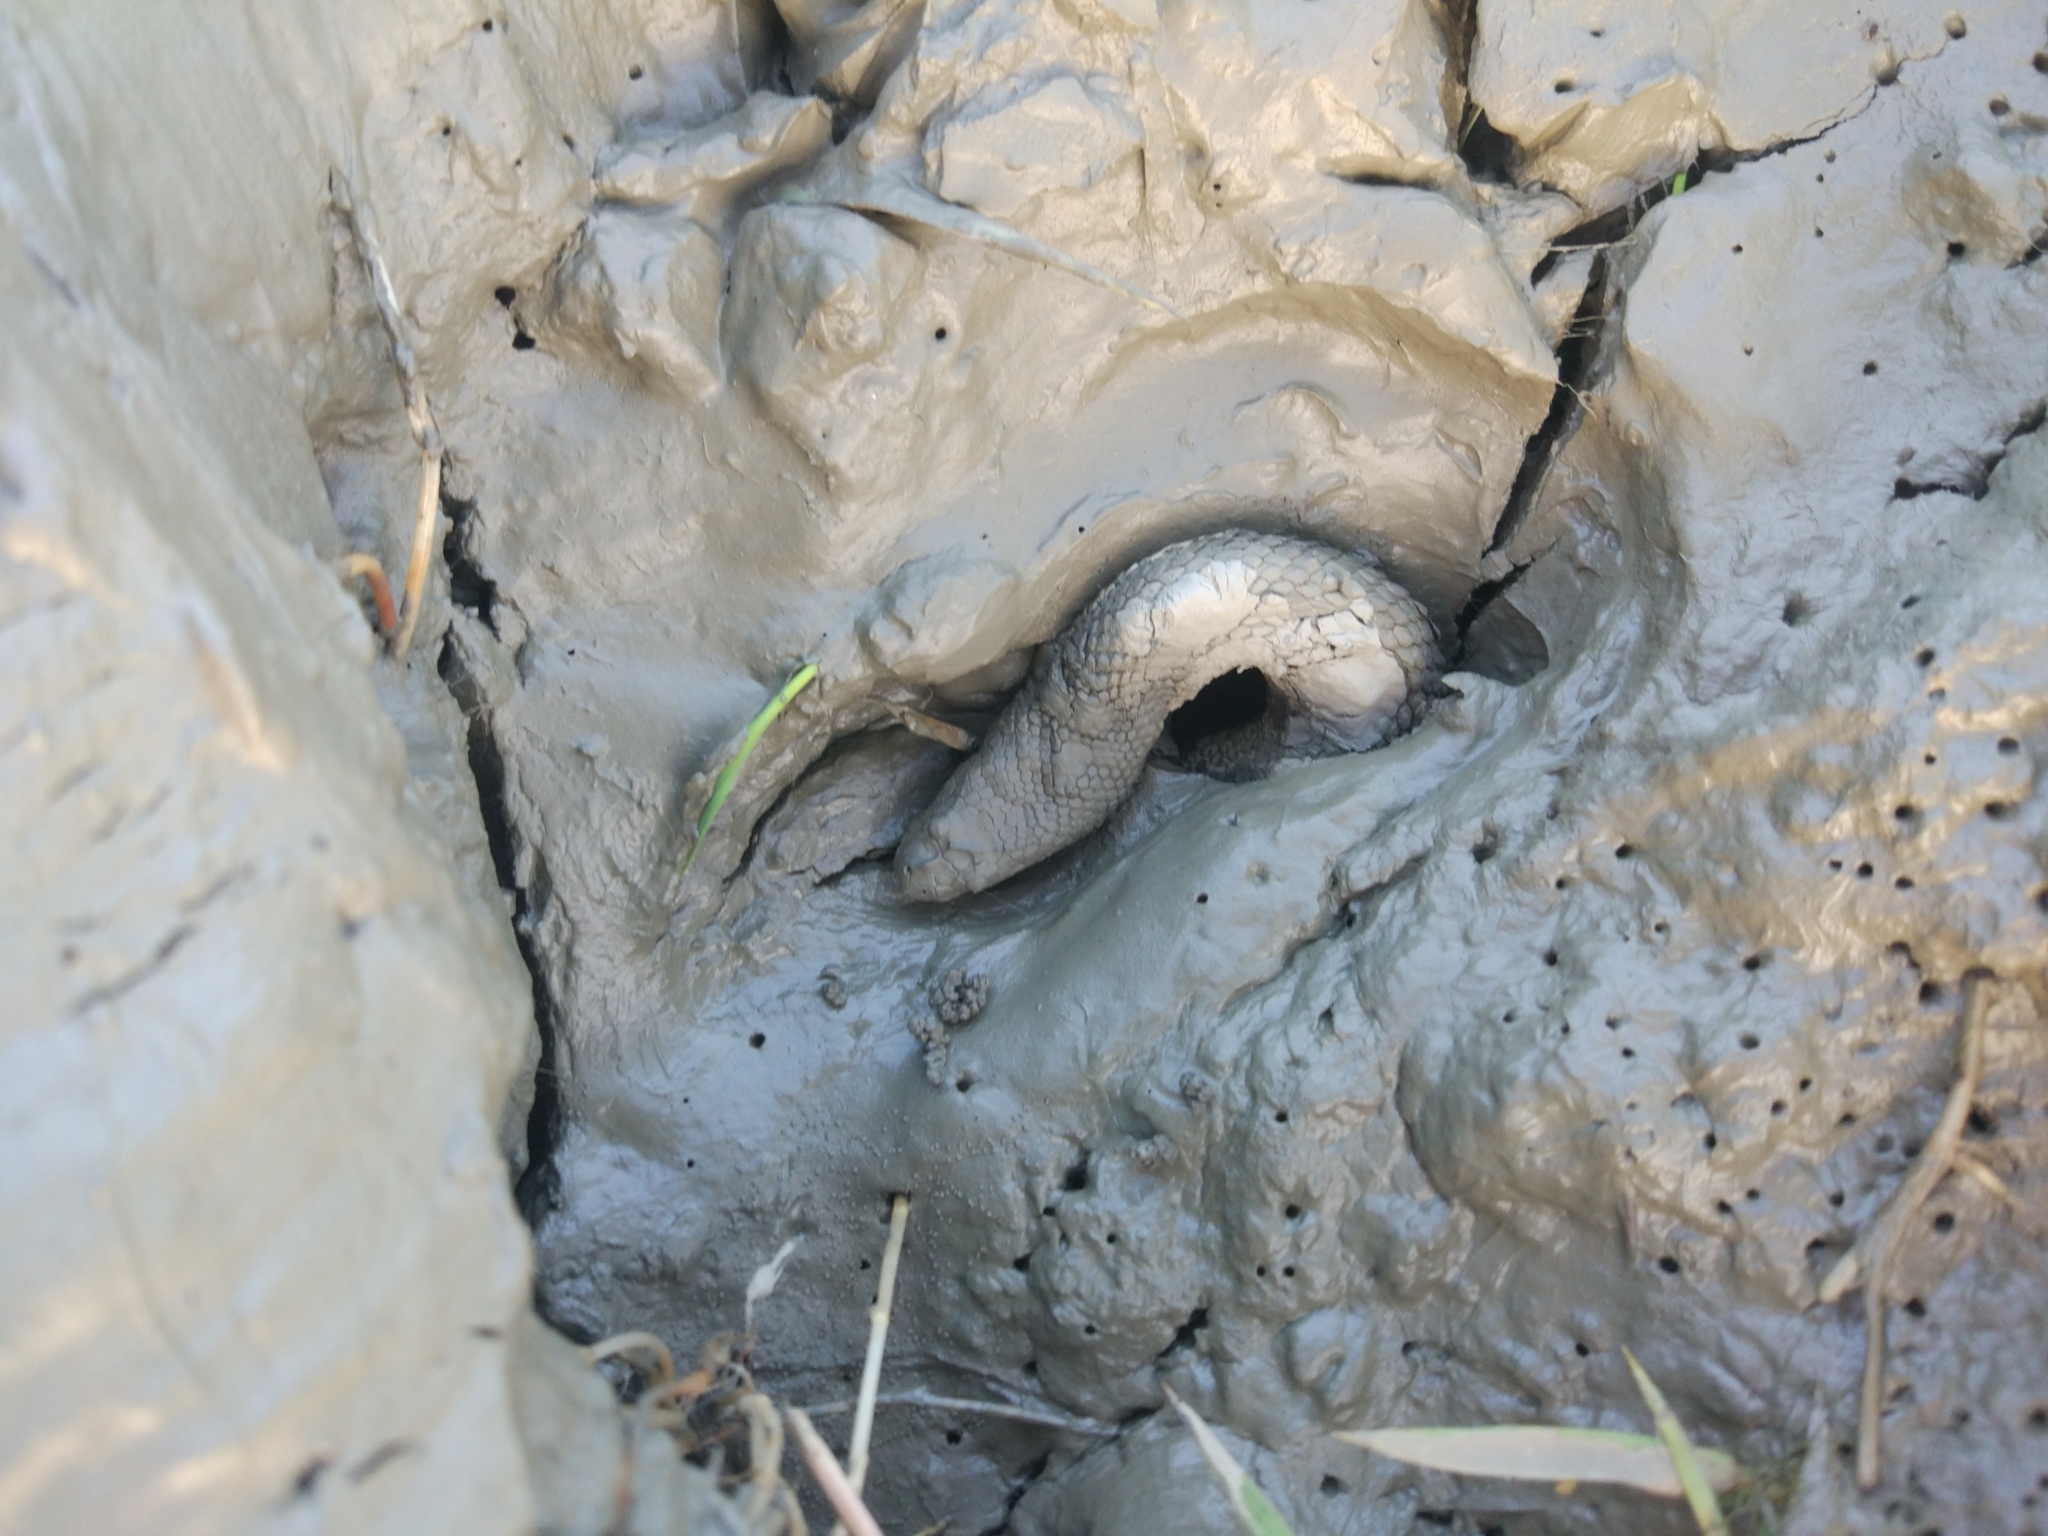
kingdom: Animalia
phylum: Chordata
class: Squamata
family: Homalopsidae
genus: Cerberus
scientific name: Cerberus rynchops
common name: Dog-faced water snake
